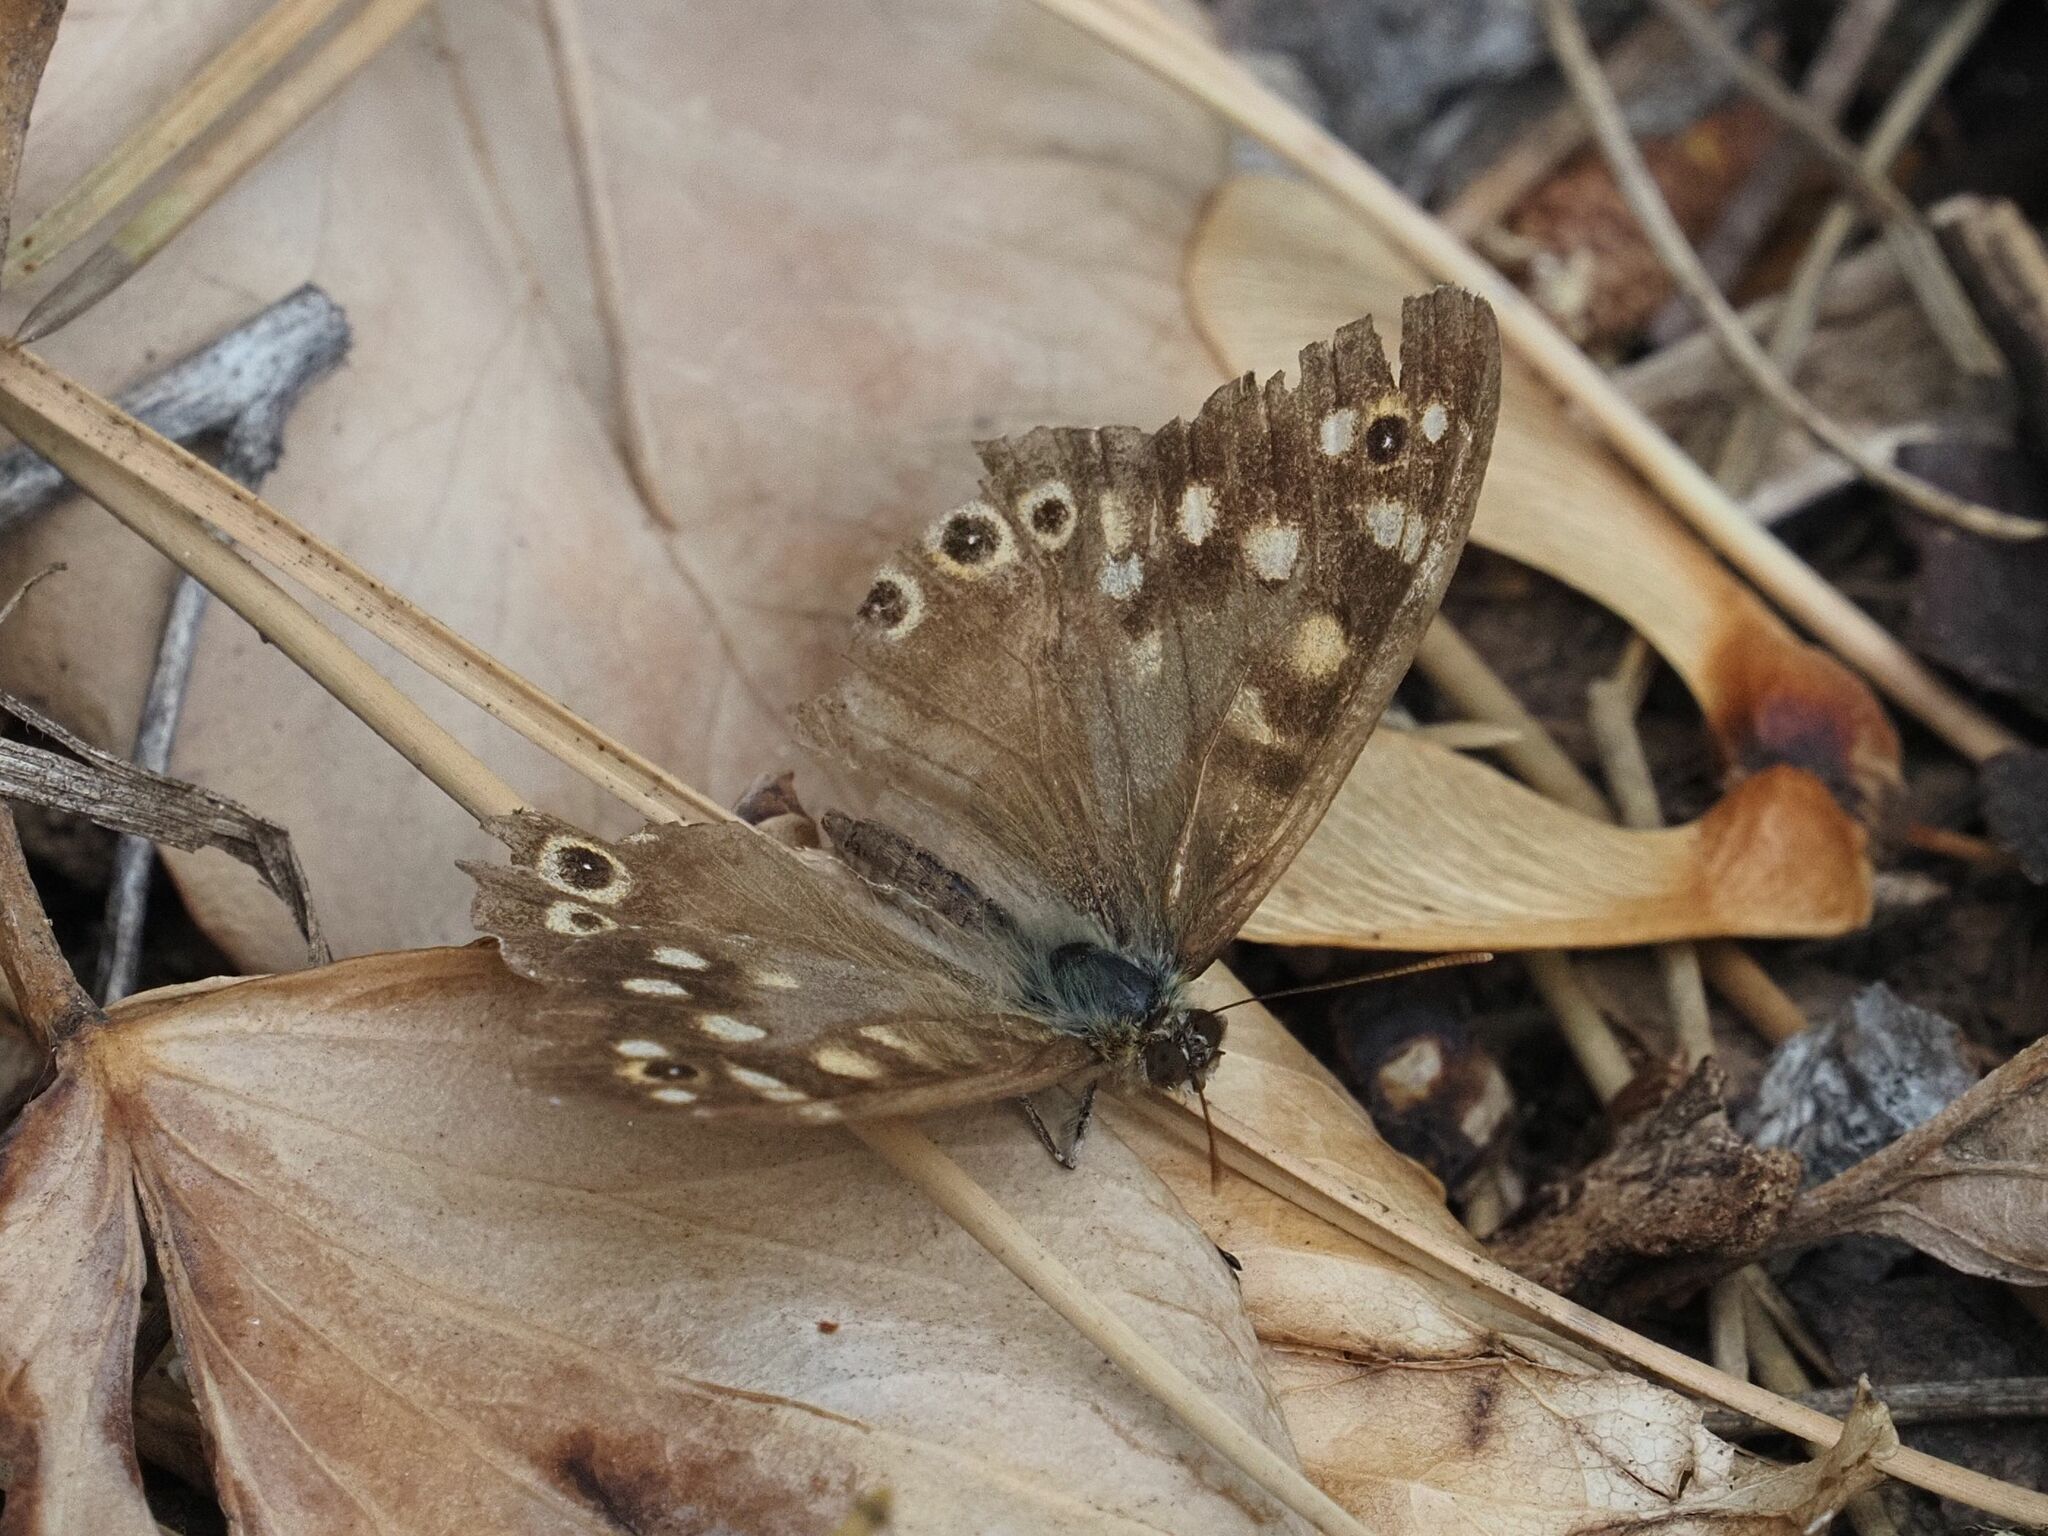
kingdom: Animalia
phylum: Arthropoda
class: Insecta
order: Lepidoptera
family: Nymphalidae
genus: Pararge
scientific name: Pararge aegeria
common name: Speckled wood
